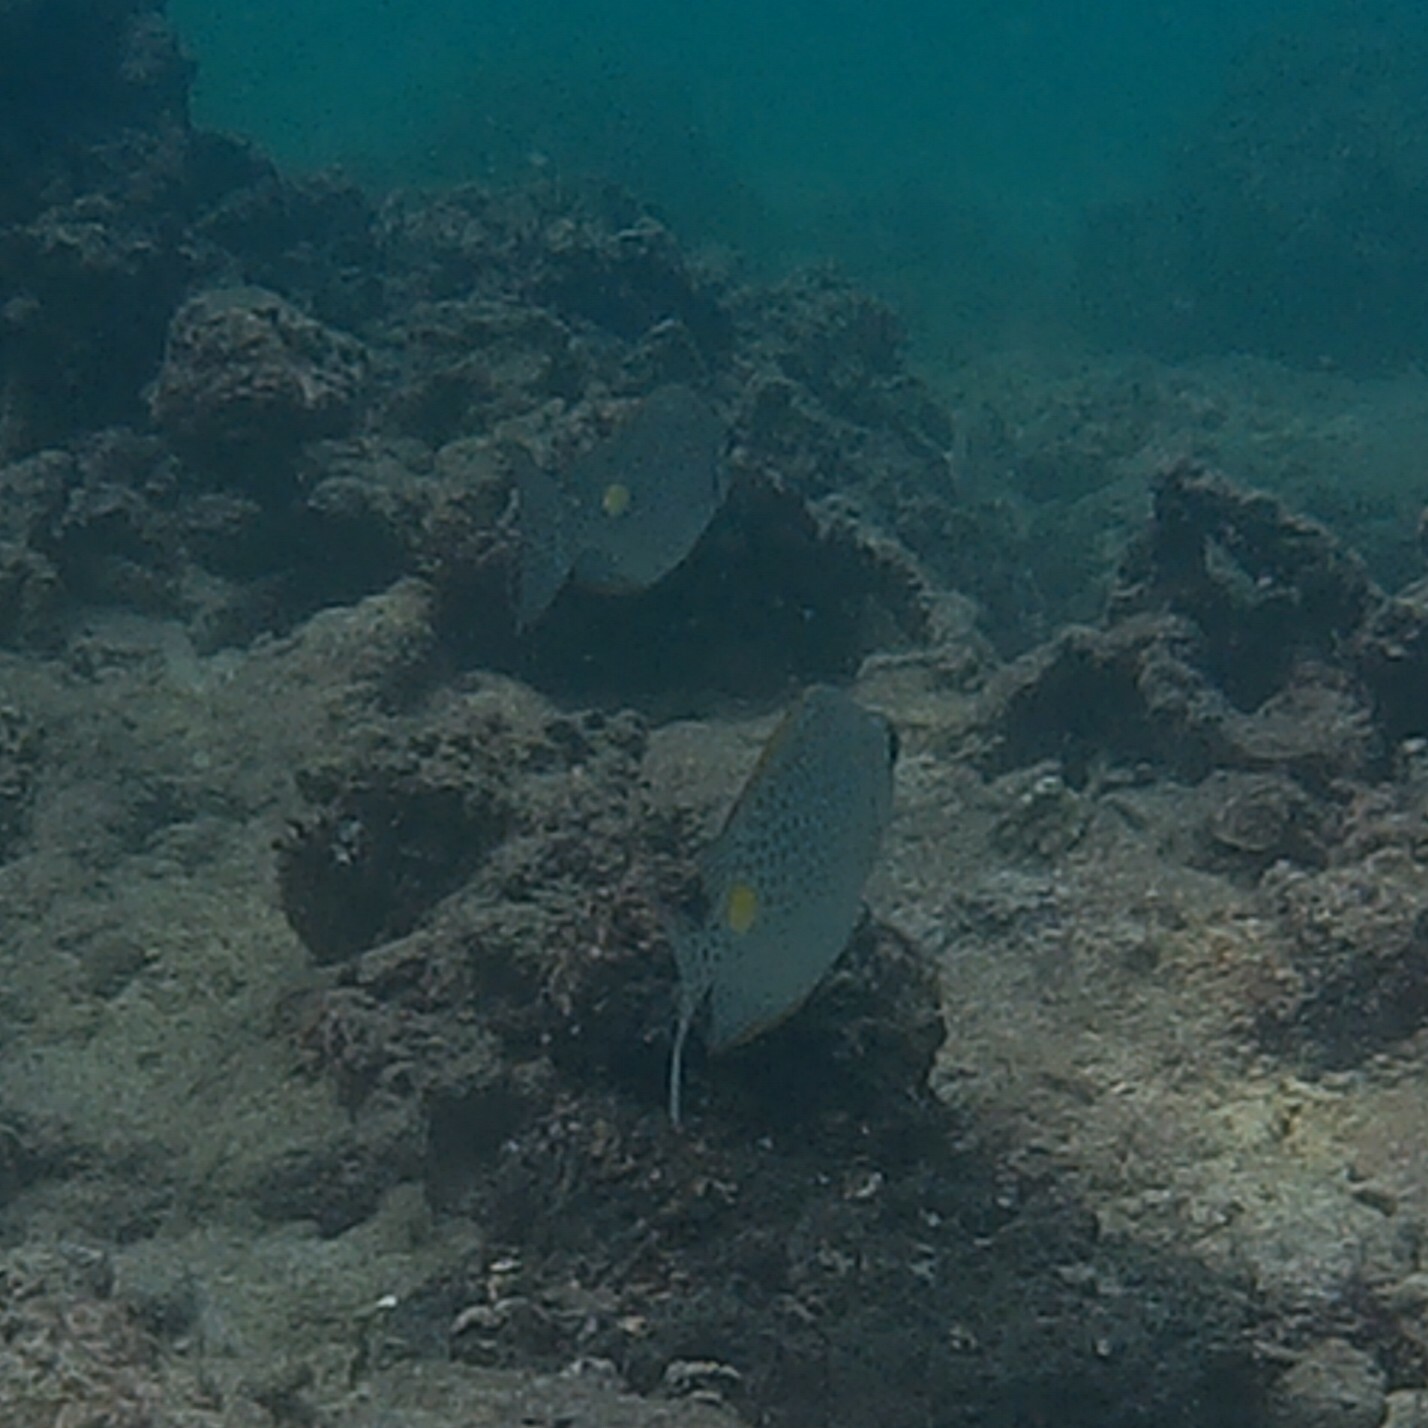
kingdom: Animalia
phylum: Chordata
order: Perciformes
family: Siganidae
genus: Siganus
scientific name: Siganus guttatus
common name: Golden rabbitfish
